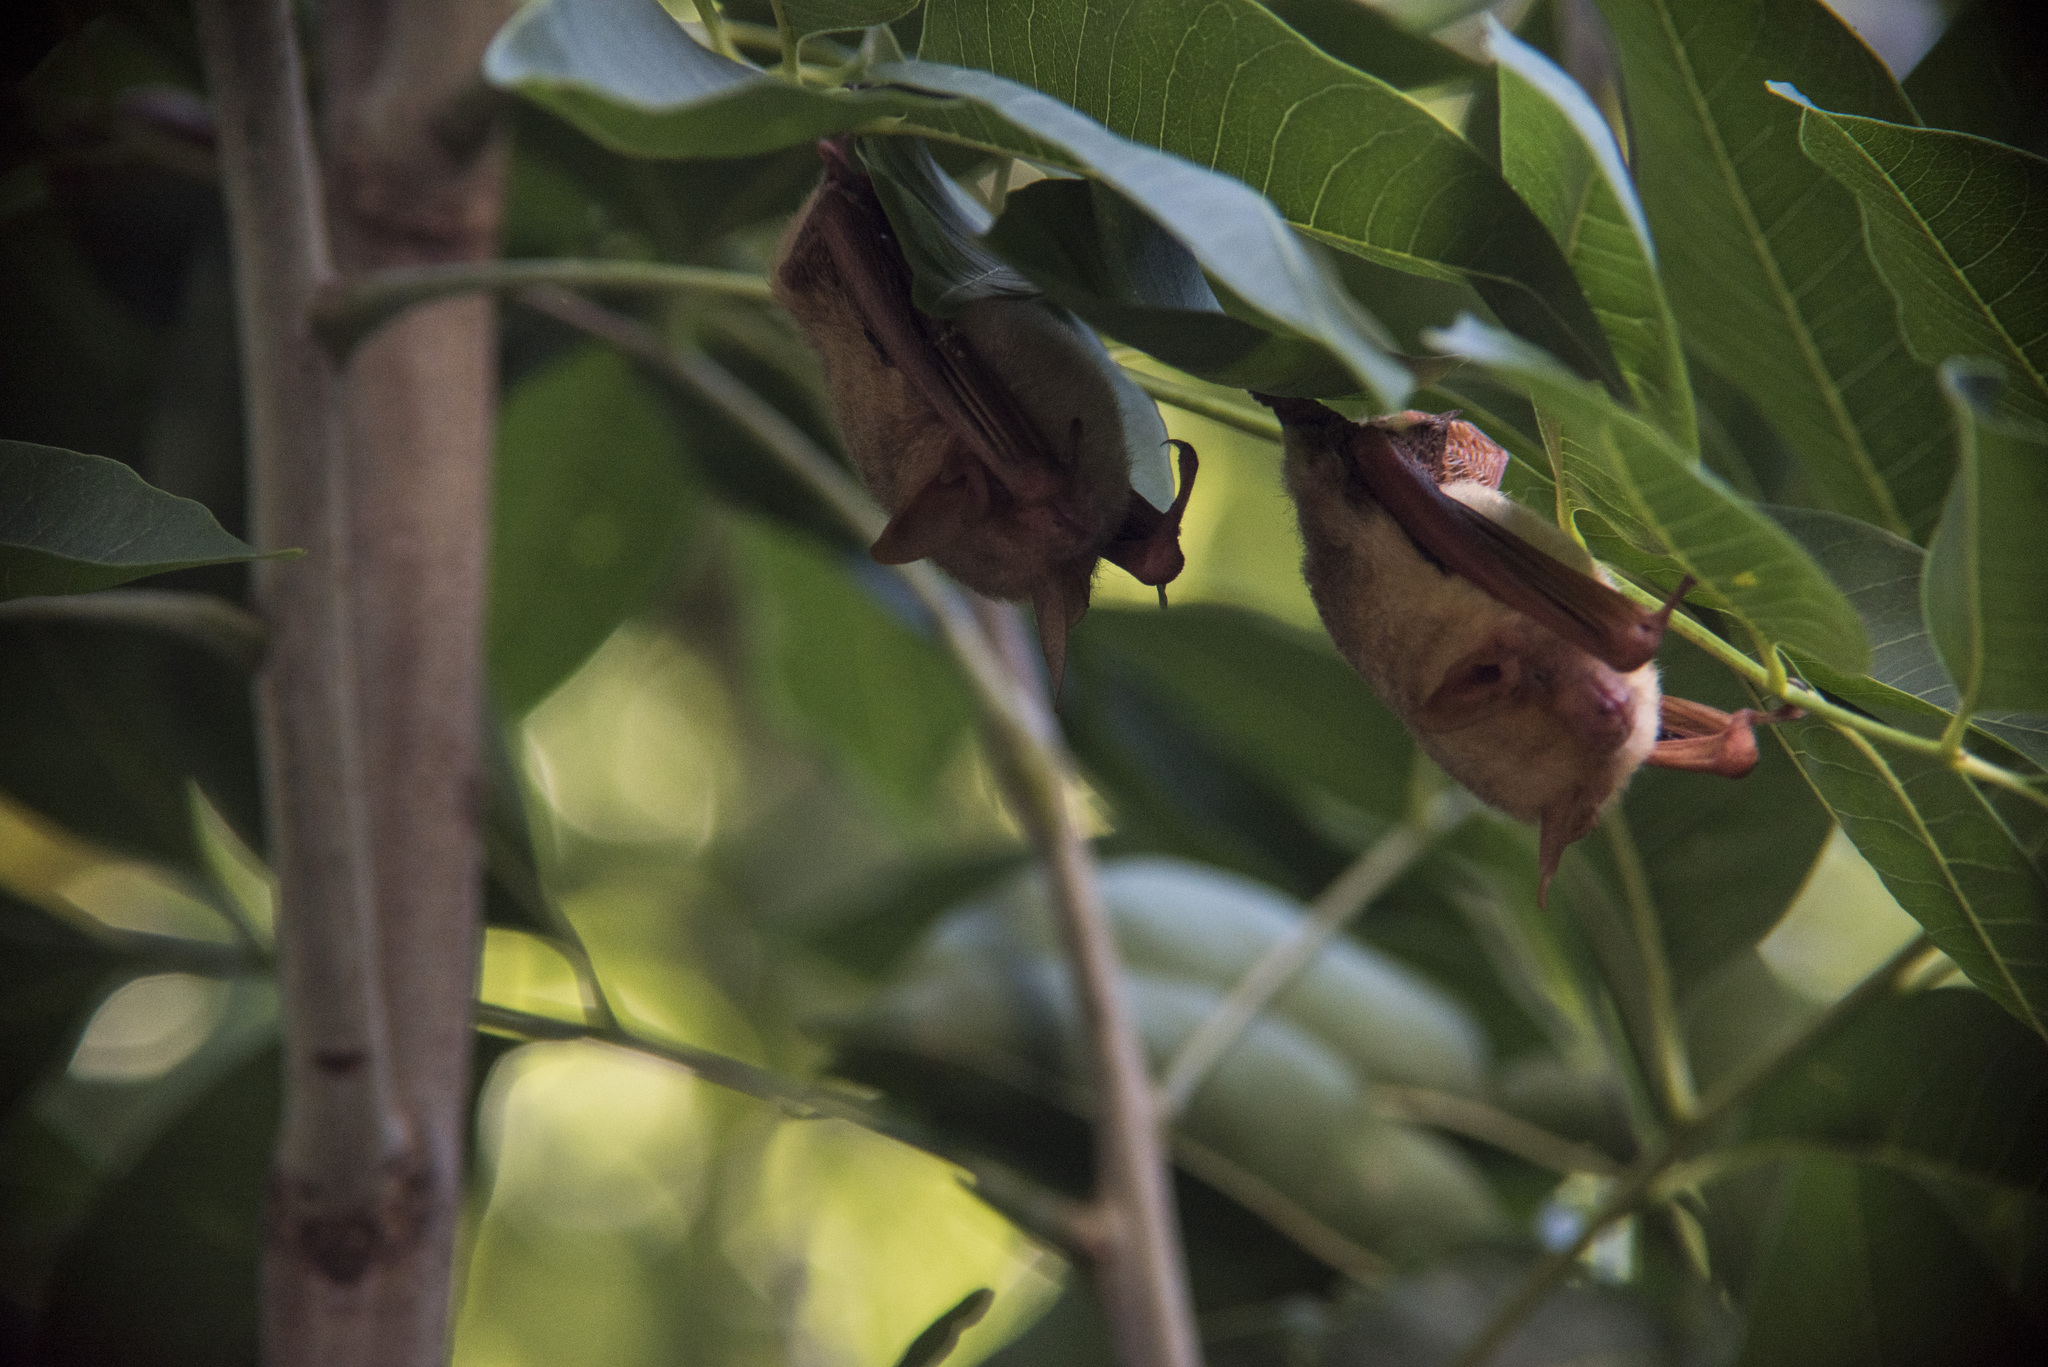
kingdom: Animalia
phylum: Chordata
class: Mammalia
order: Chiroptera
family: Vespertilionidae
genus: Myotis
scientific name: Myotis formosus
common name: Hodgson's myotis
